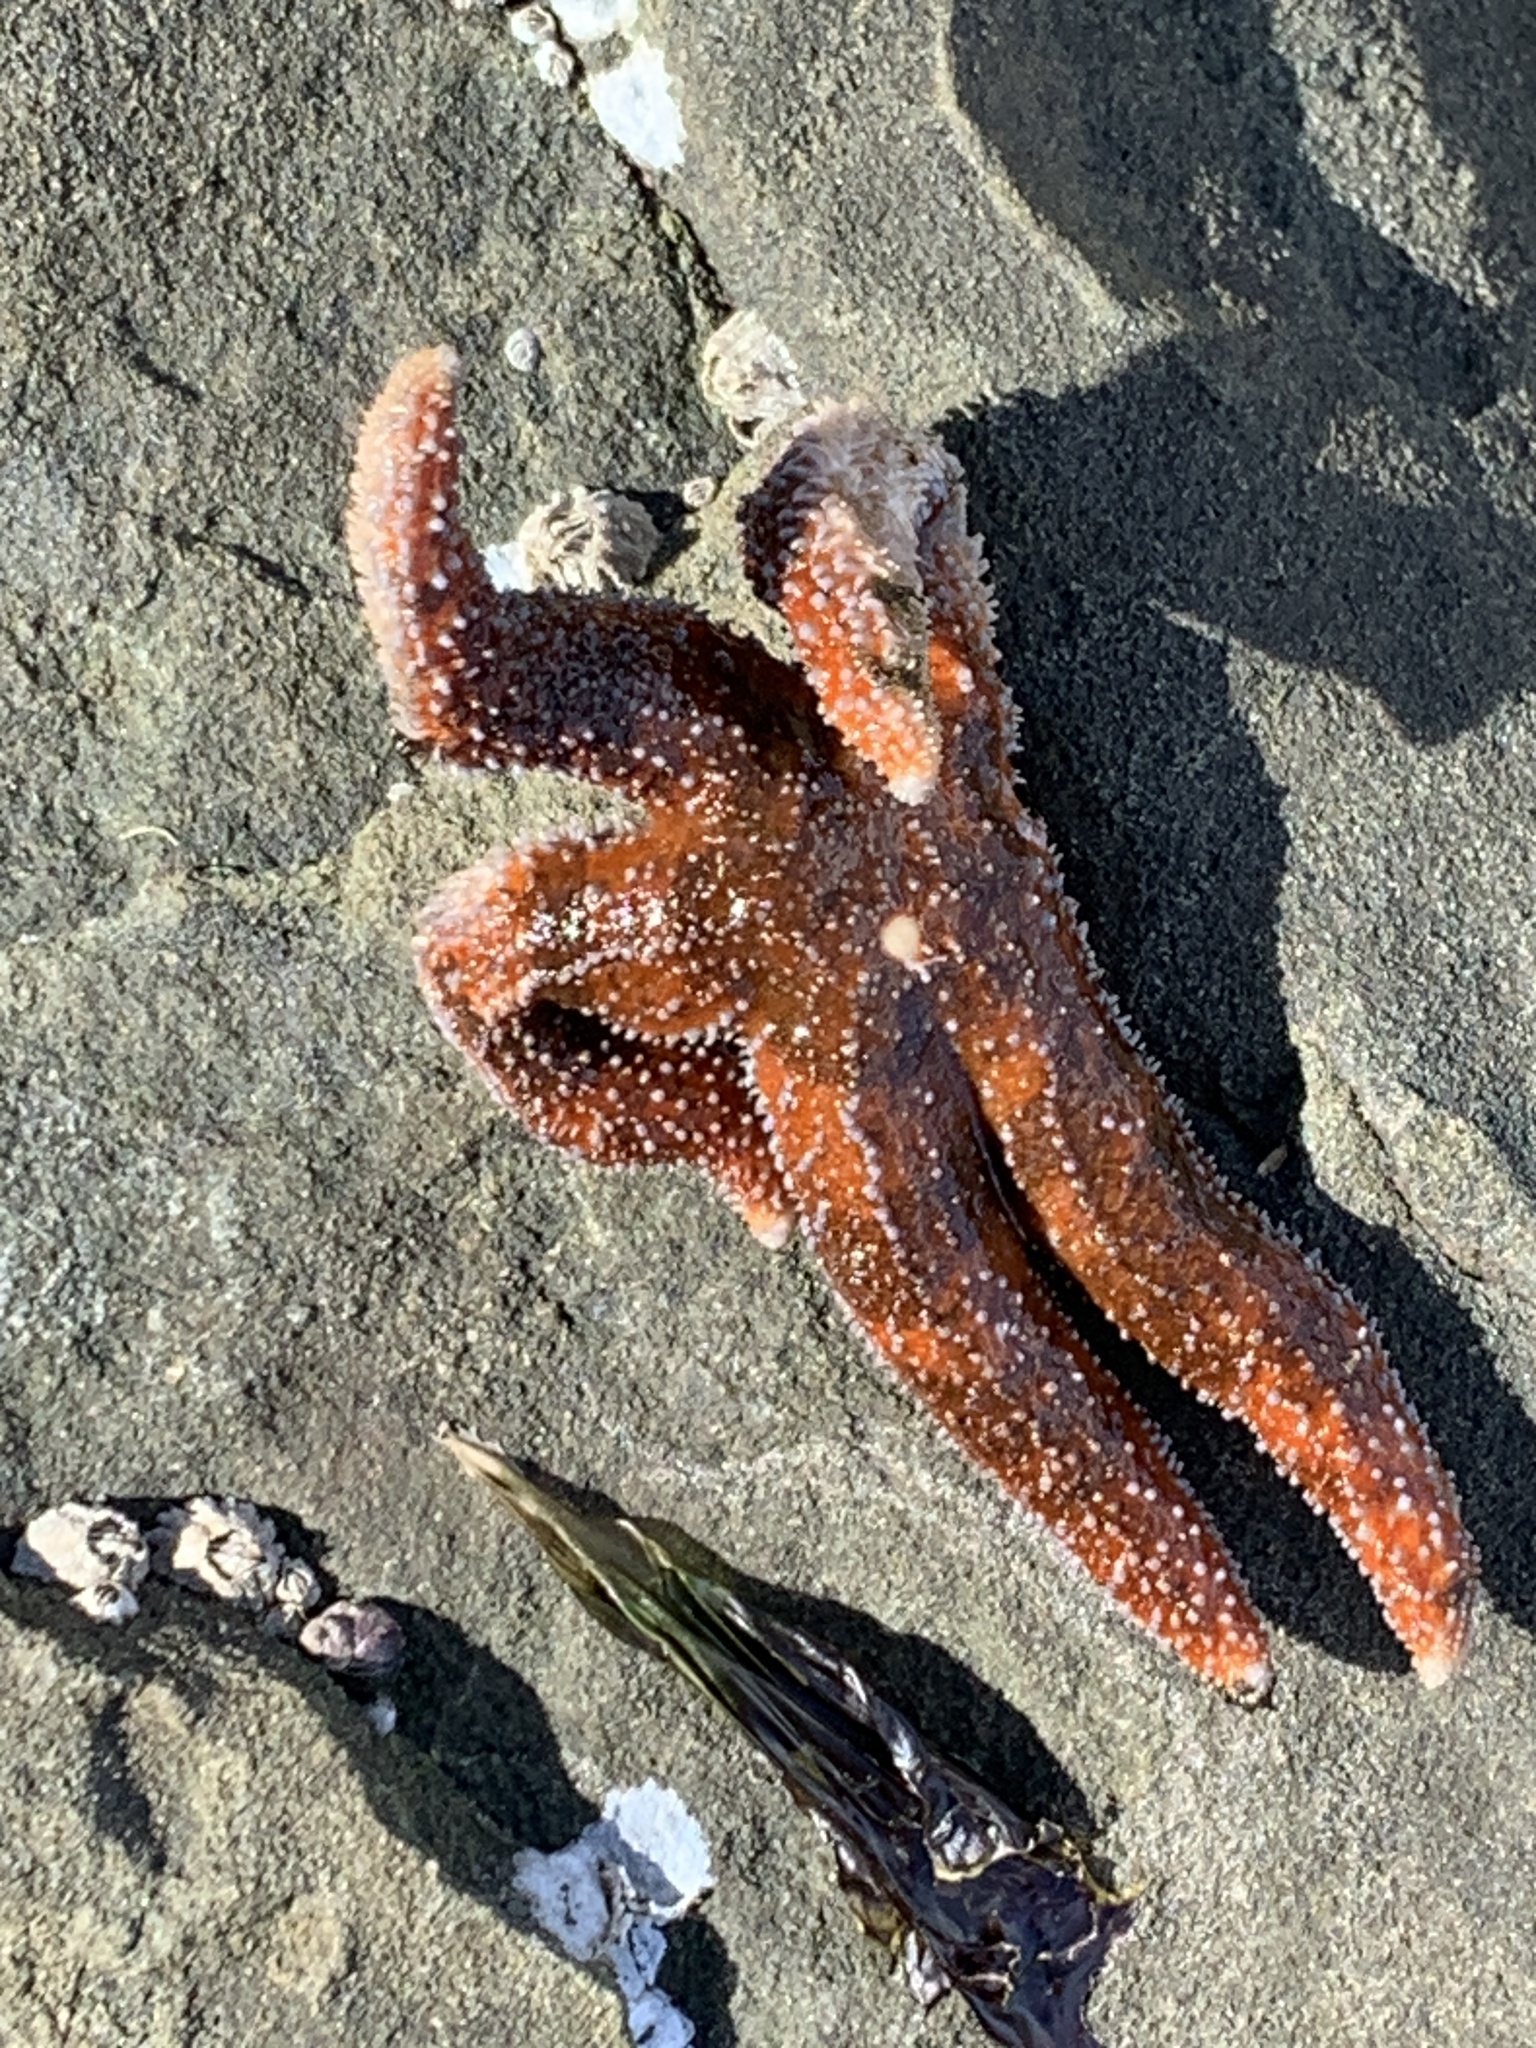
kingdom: Animalia
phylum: Echinodermata
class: Asteroidea
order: Forcipulatida
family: Asteriidae
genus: Evasterias
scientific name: Evasterias troschelii
